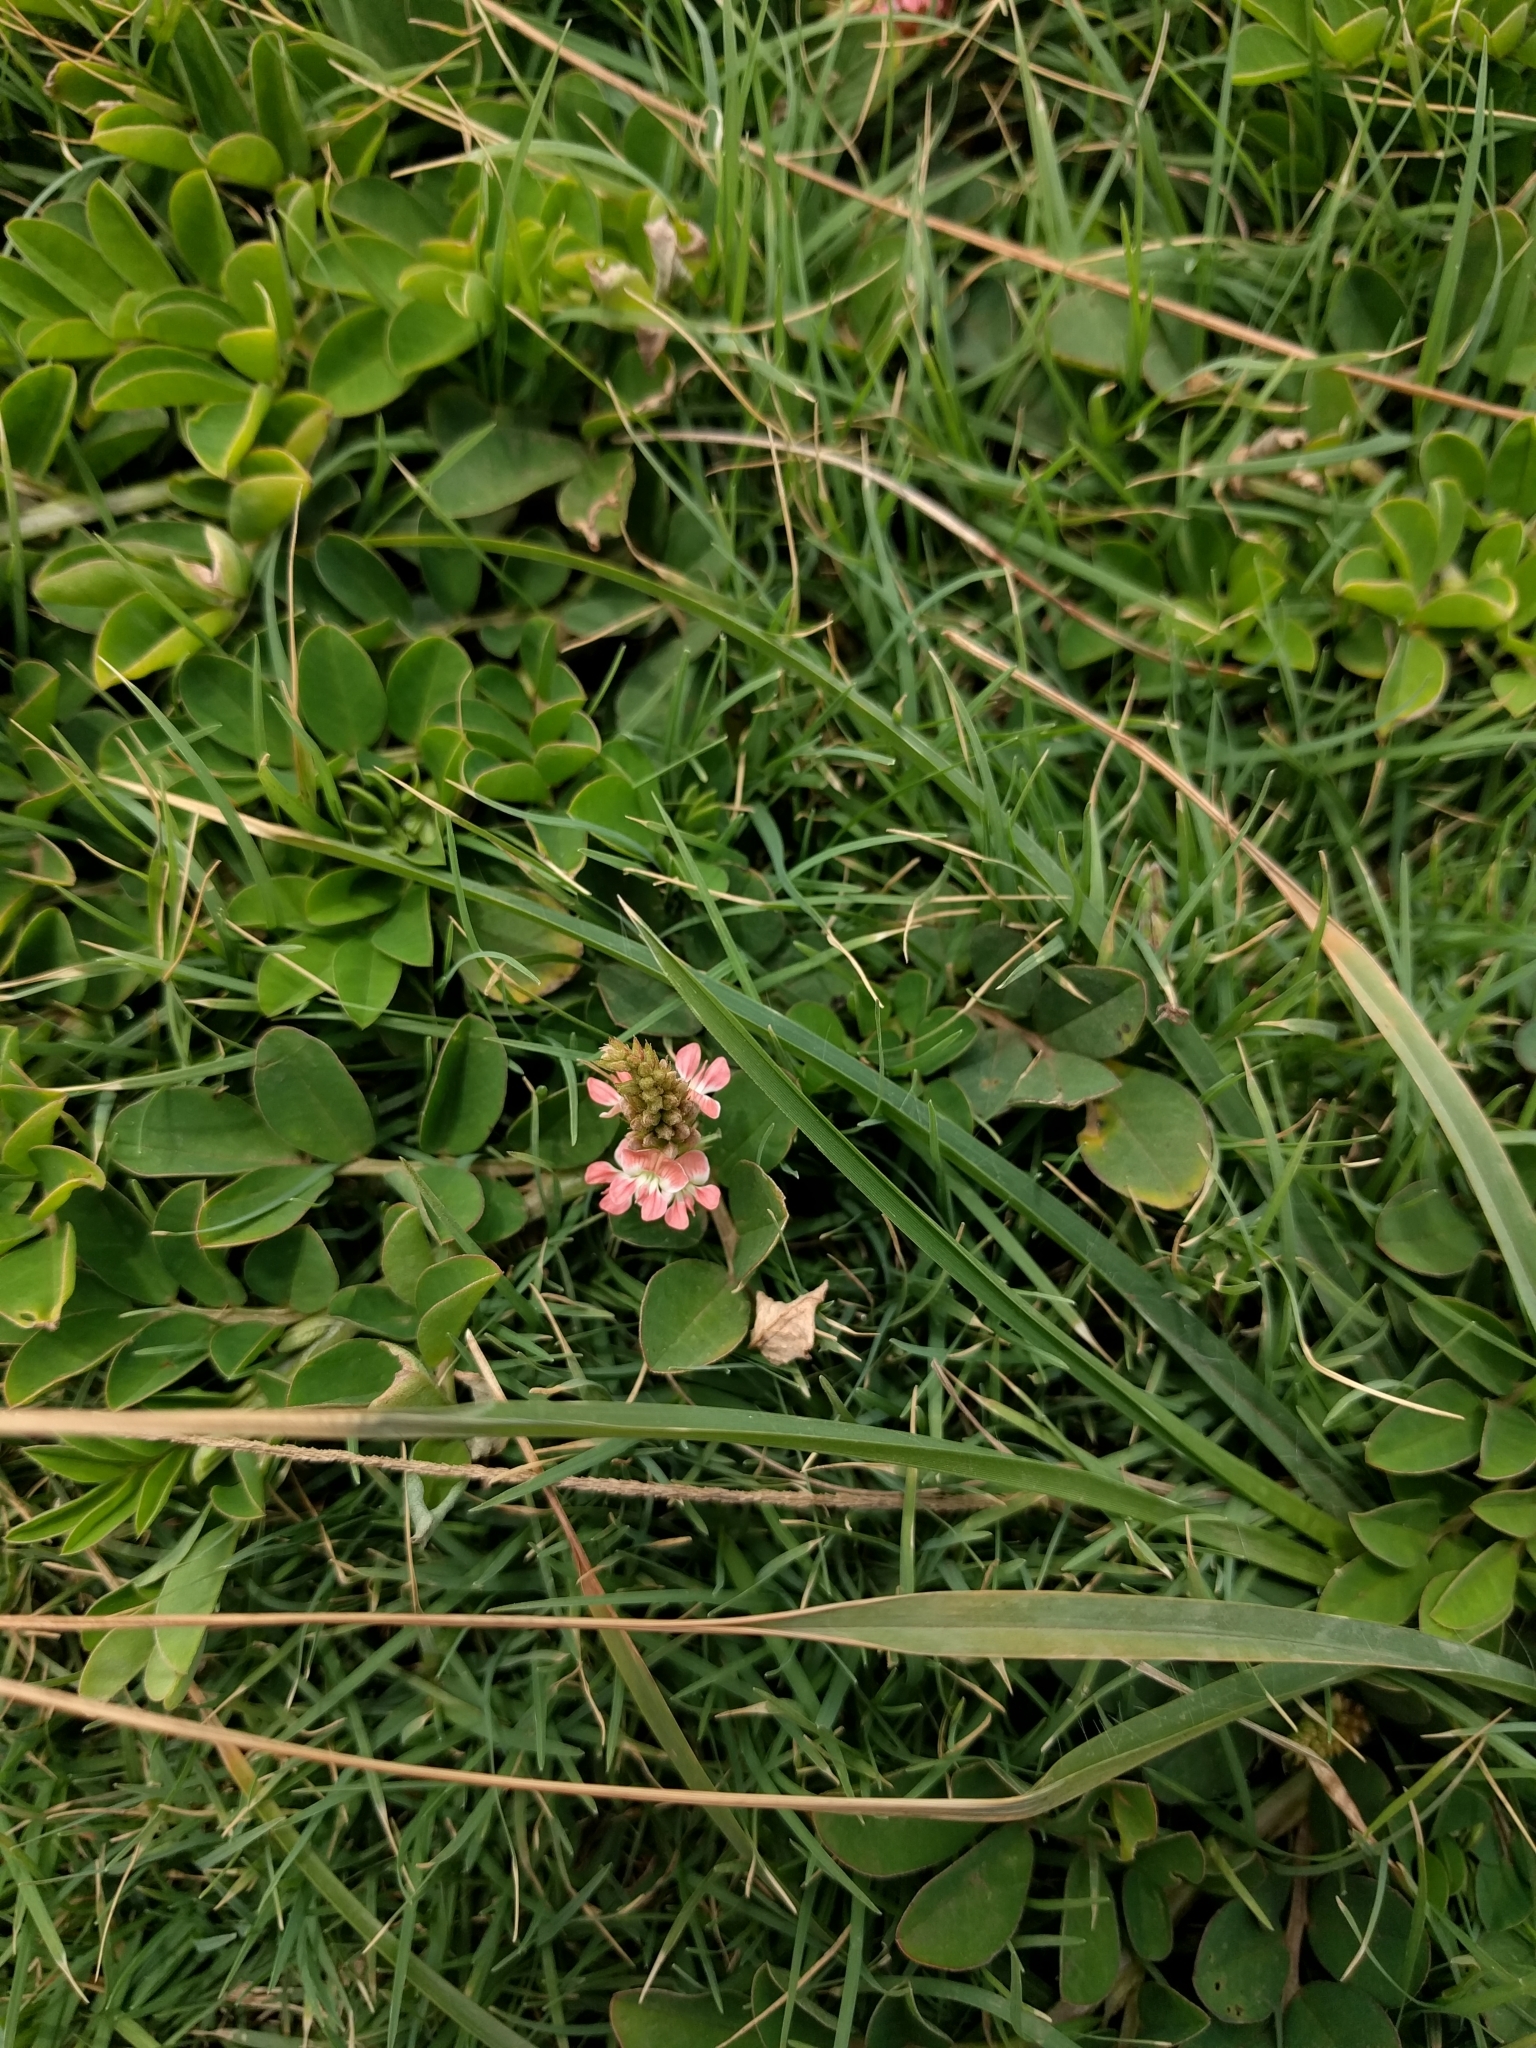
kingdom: Plantae
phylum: Tracheophyta
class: Magnoliopsida
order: Fabales
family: Fabaceae
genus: Indigofera
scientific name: Indigofera spicata
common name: Creeping indigo
